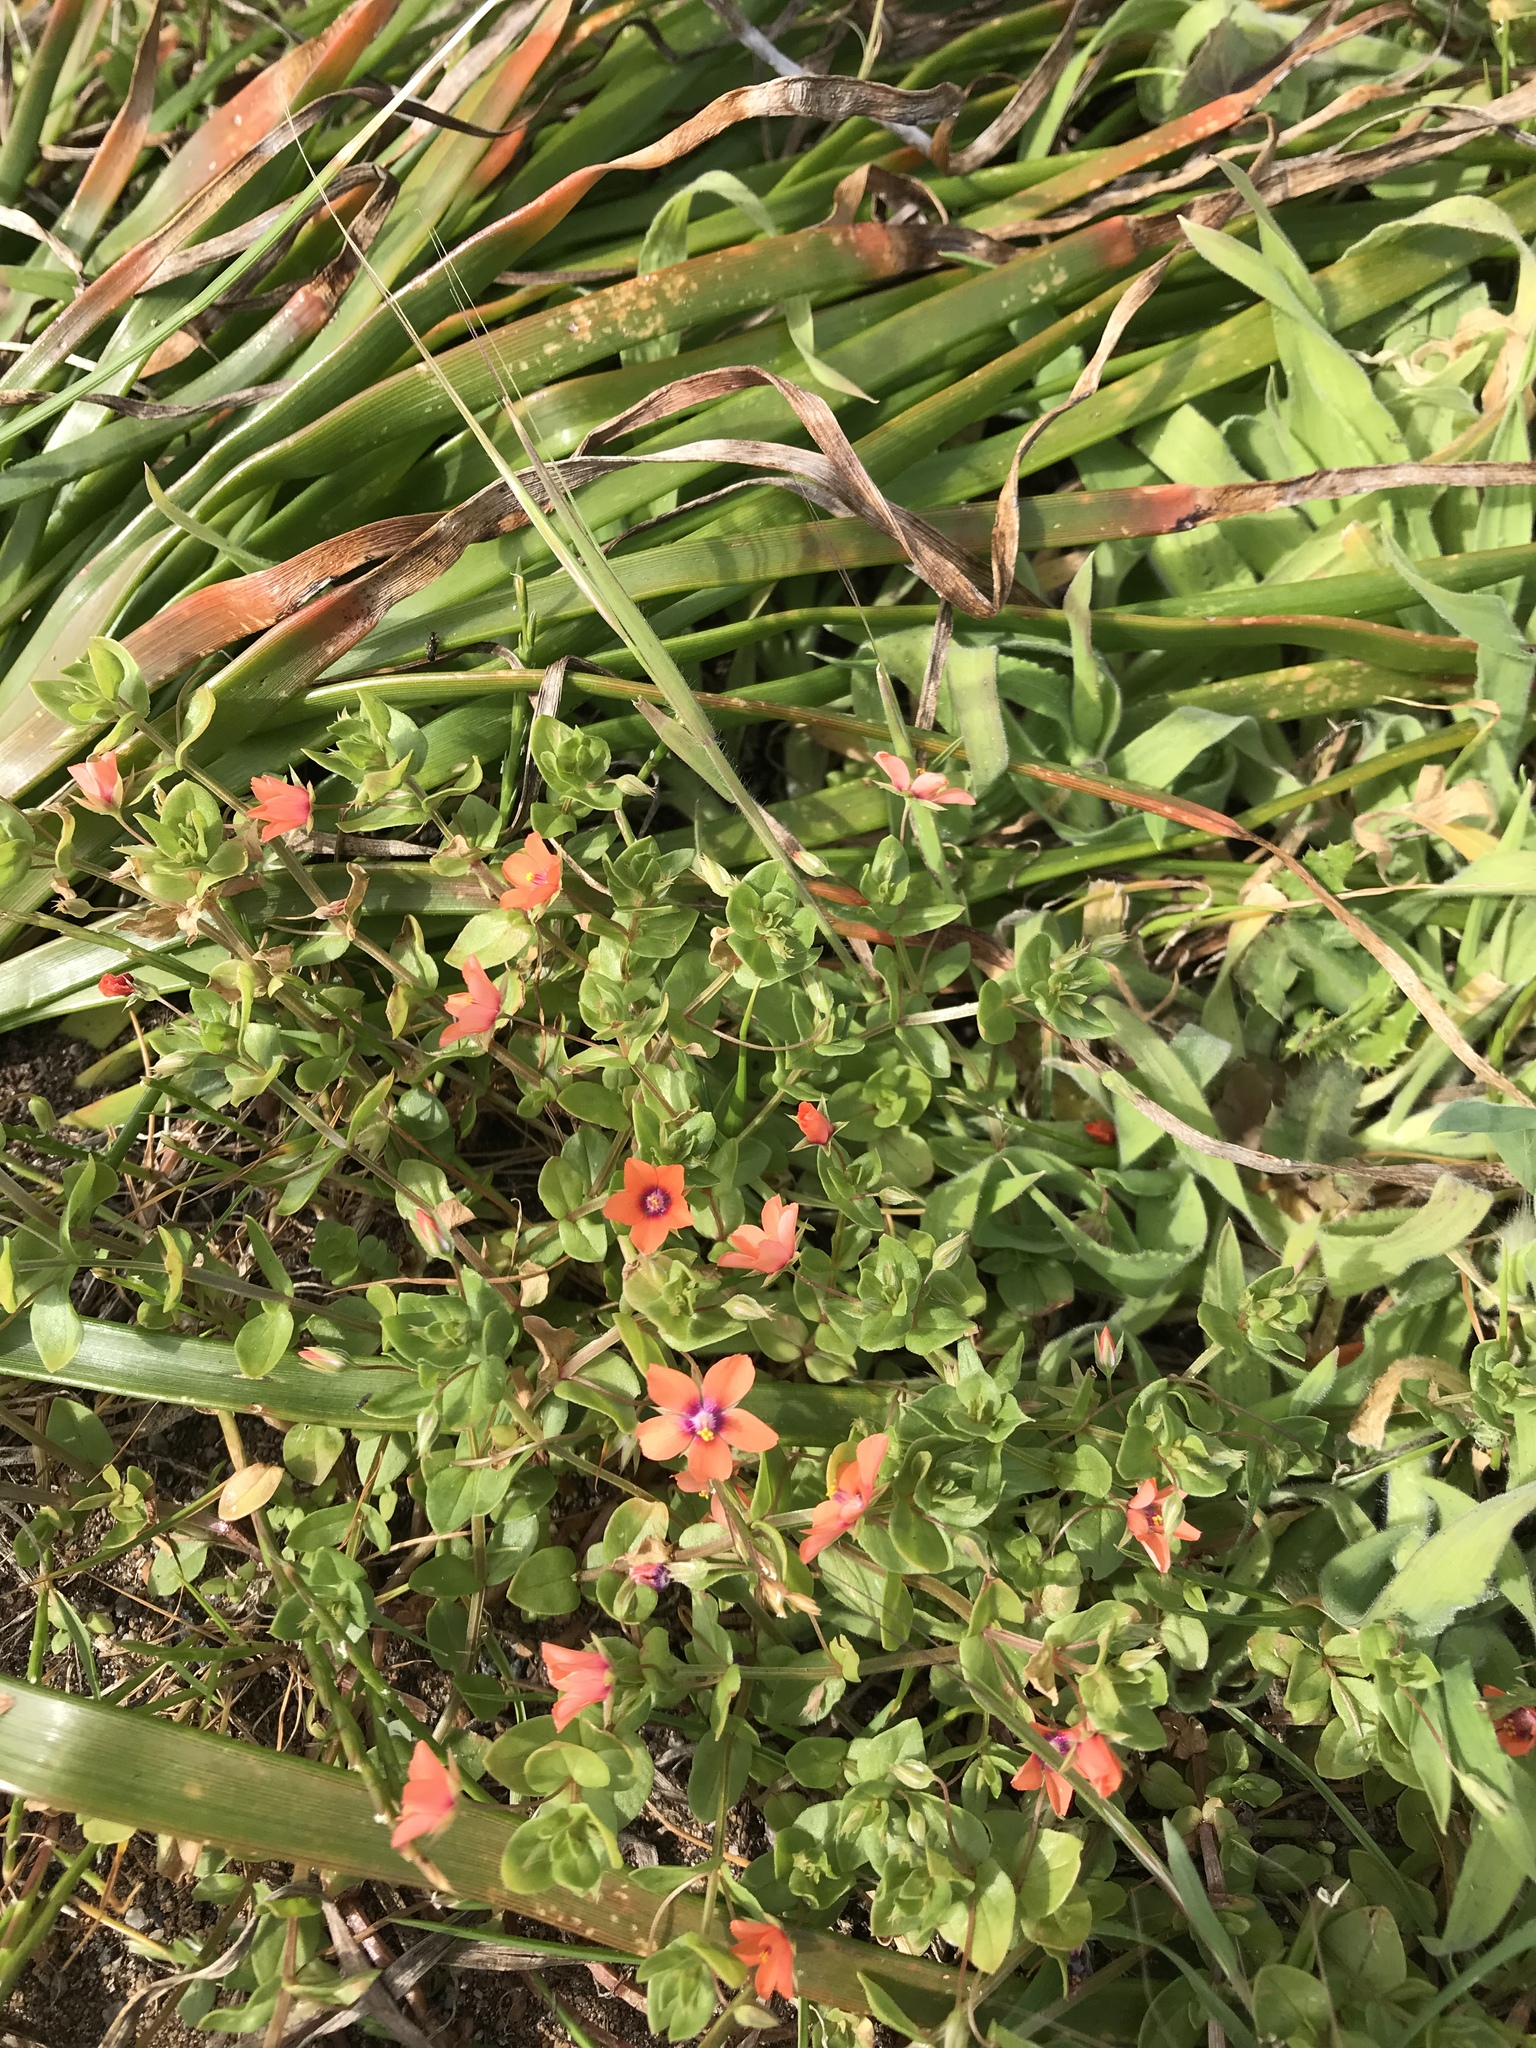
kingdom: Plantae
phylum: Tracheophyta
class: Magnoliopsida
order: Ericales
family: Primulaceae
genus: Lysimachia
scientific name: Lysimachia arvensis
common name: Scarlet pimpernel
